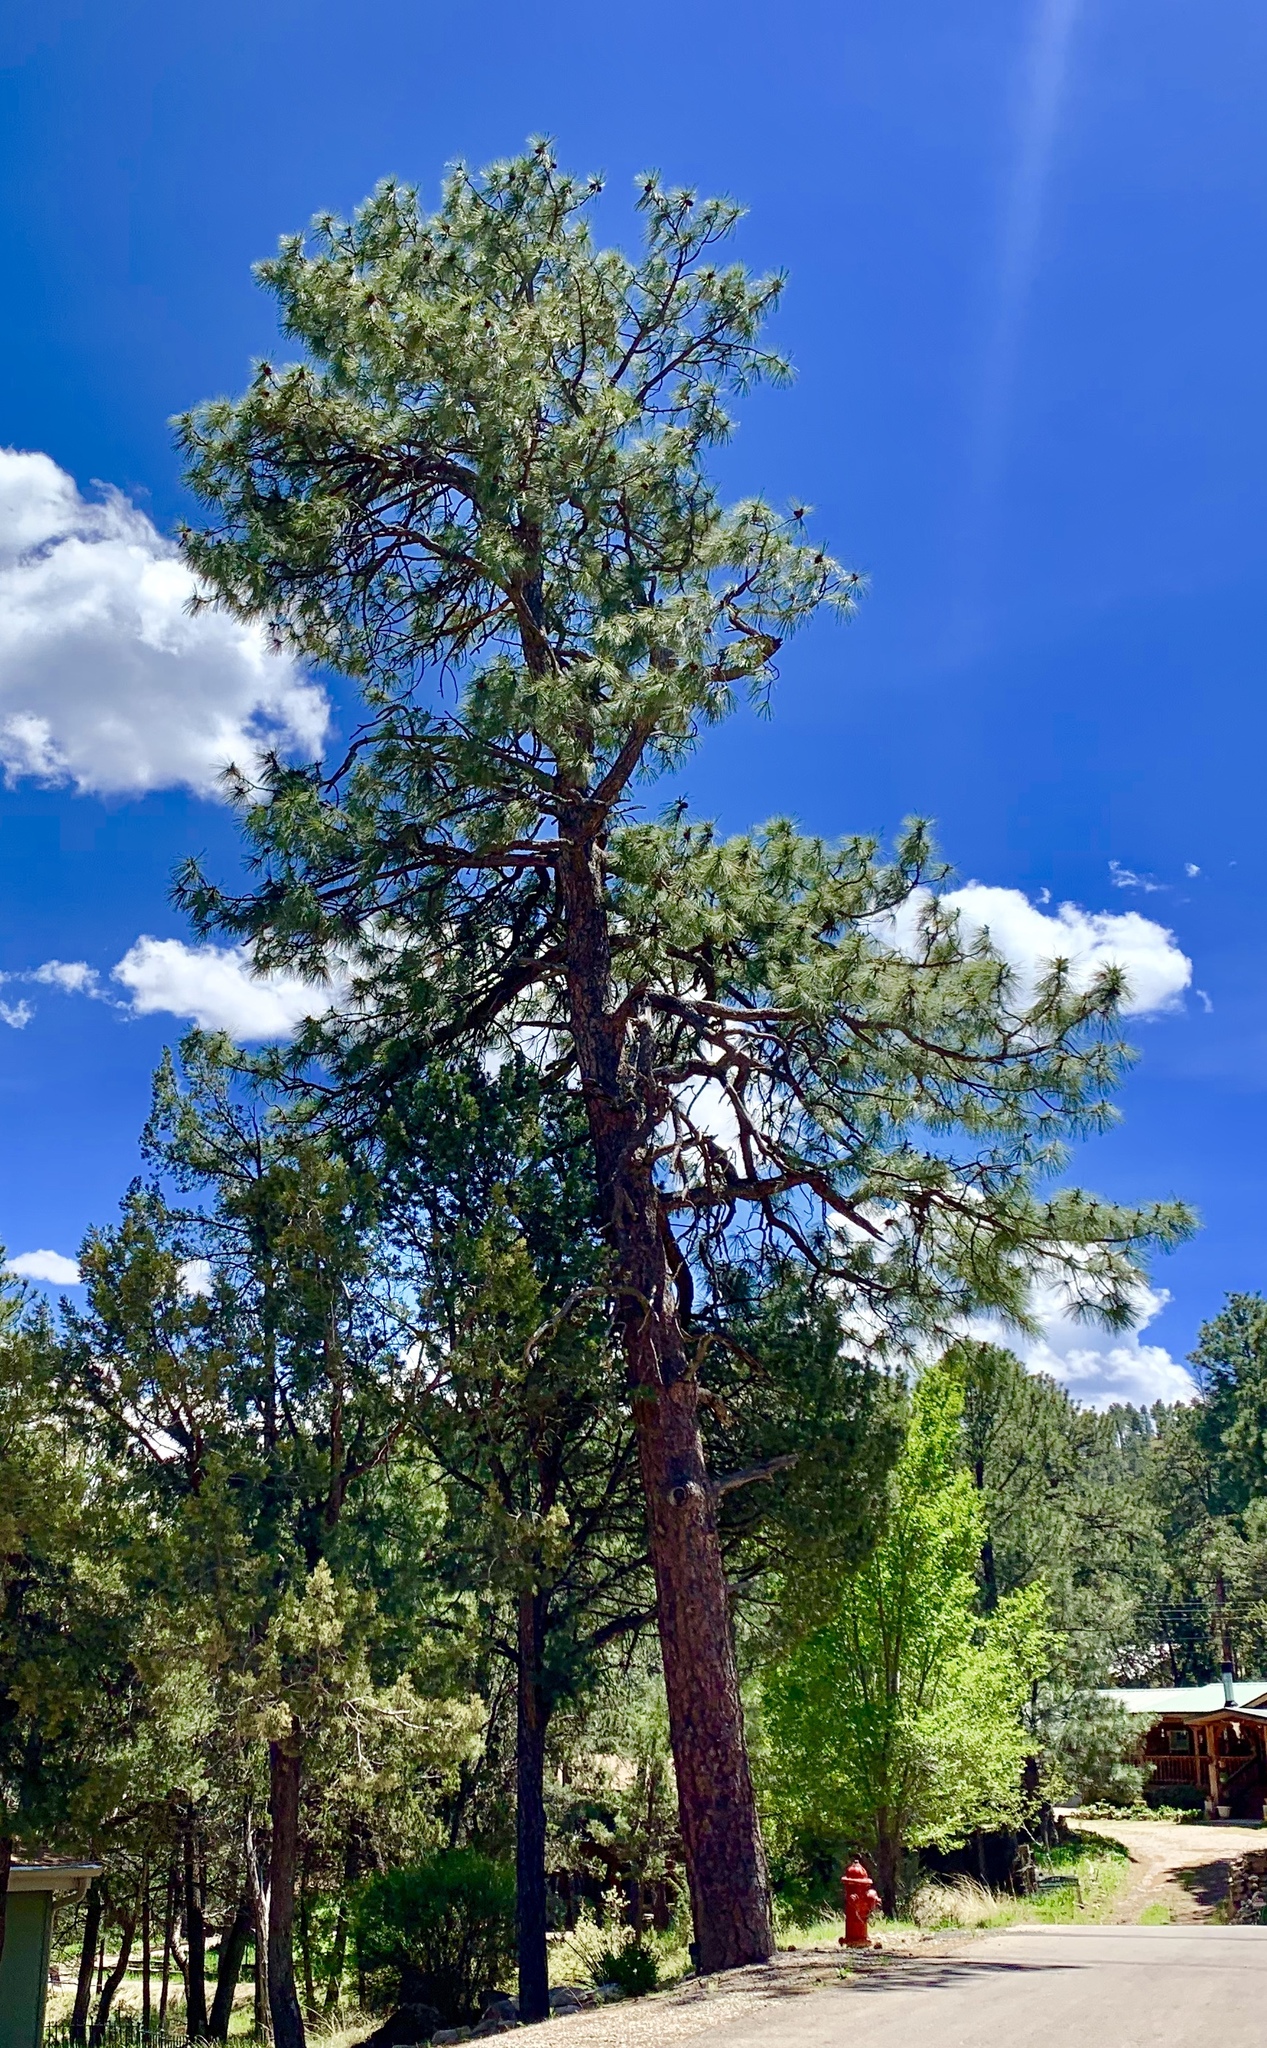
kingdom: Plantae
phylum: Tracheophyta
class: Pinopsida
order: Pinales
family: Pinaceae
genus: Pinus
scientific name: Pinus ponderosa
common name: Western yellow-pine
